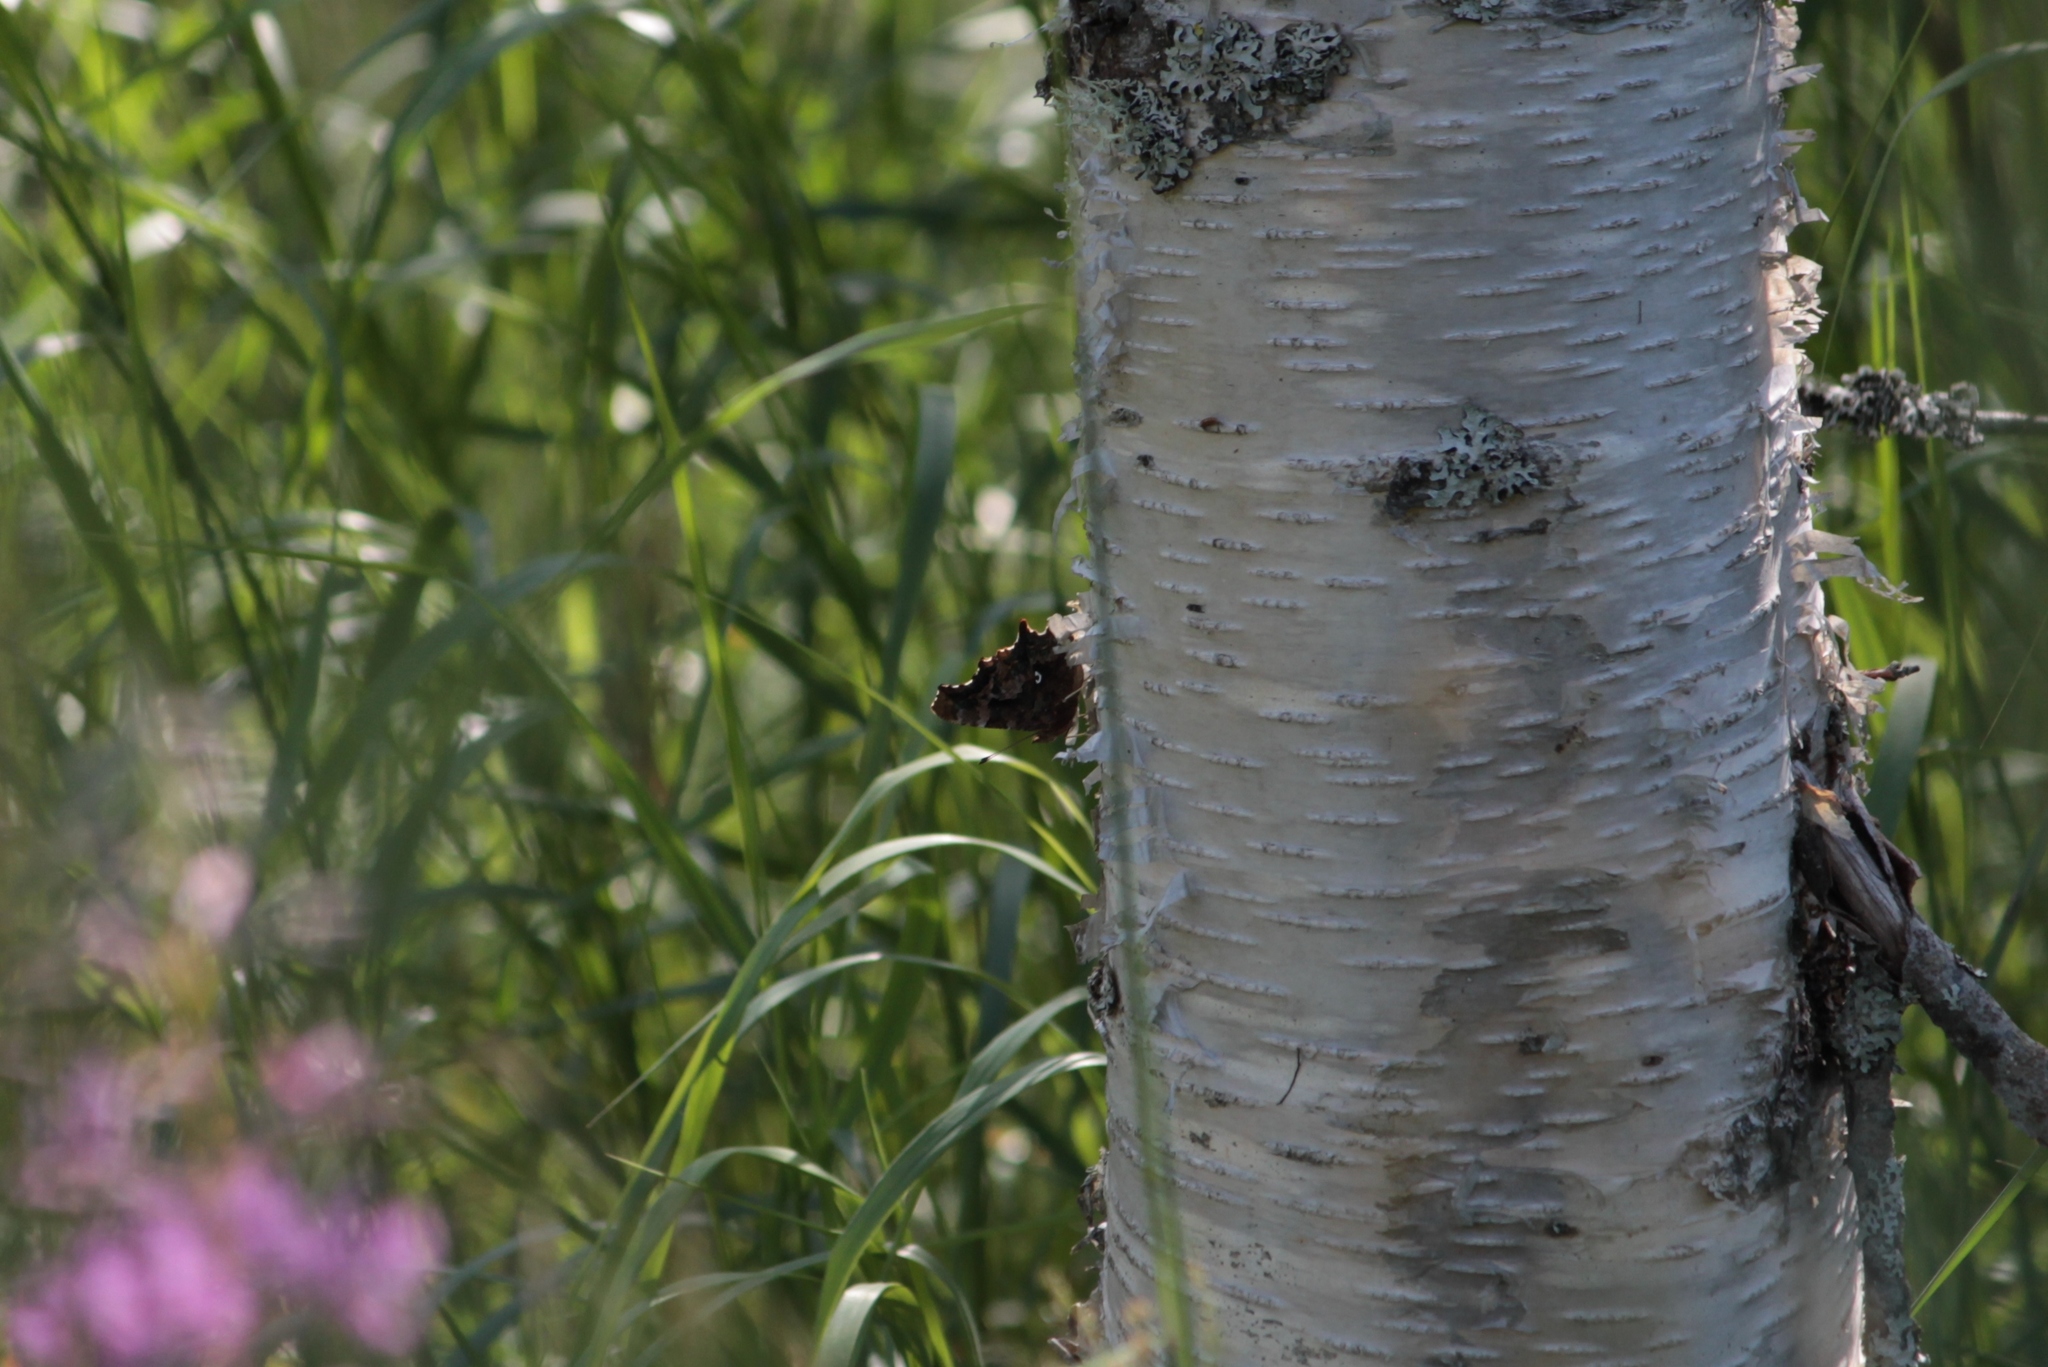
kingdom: Animalia
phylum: Arthropoda
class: Insecta
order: Lepidoptera
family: Nymphalidae
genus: Polygonia
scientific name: Polygonia c-album
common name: Comma
